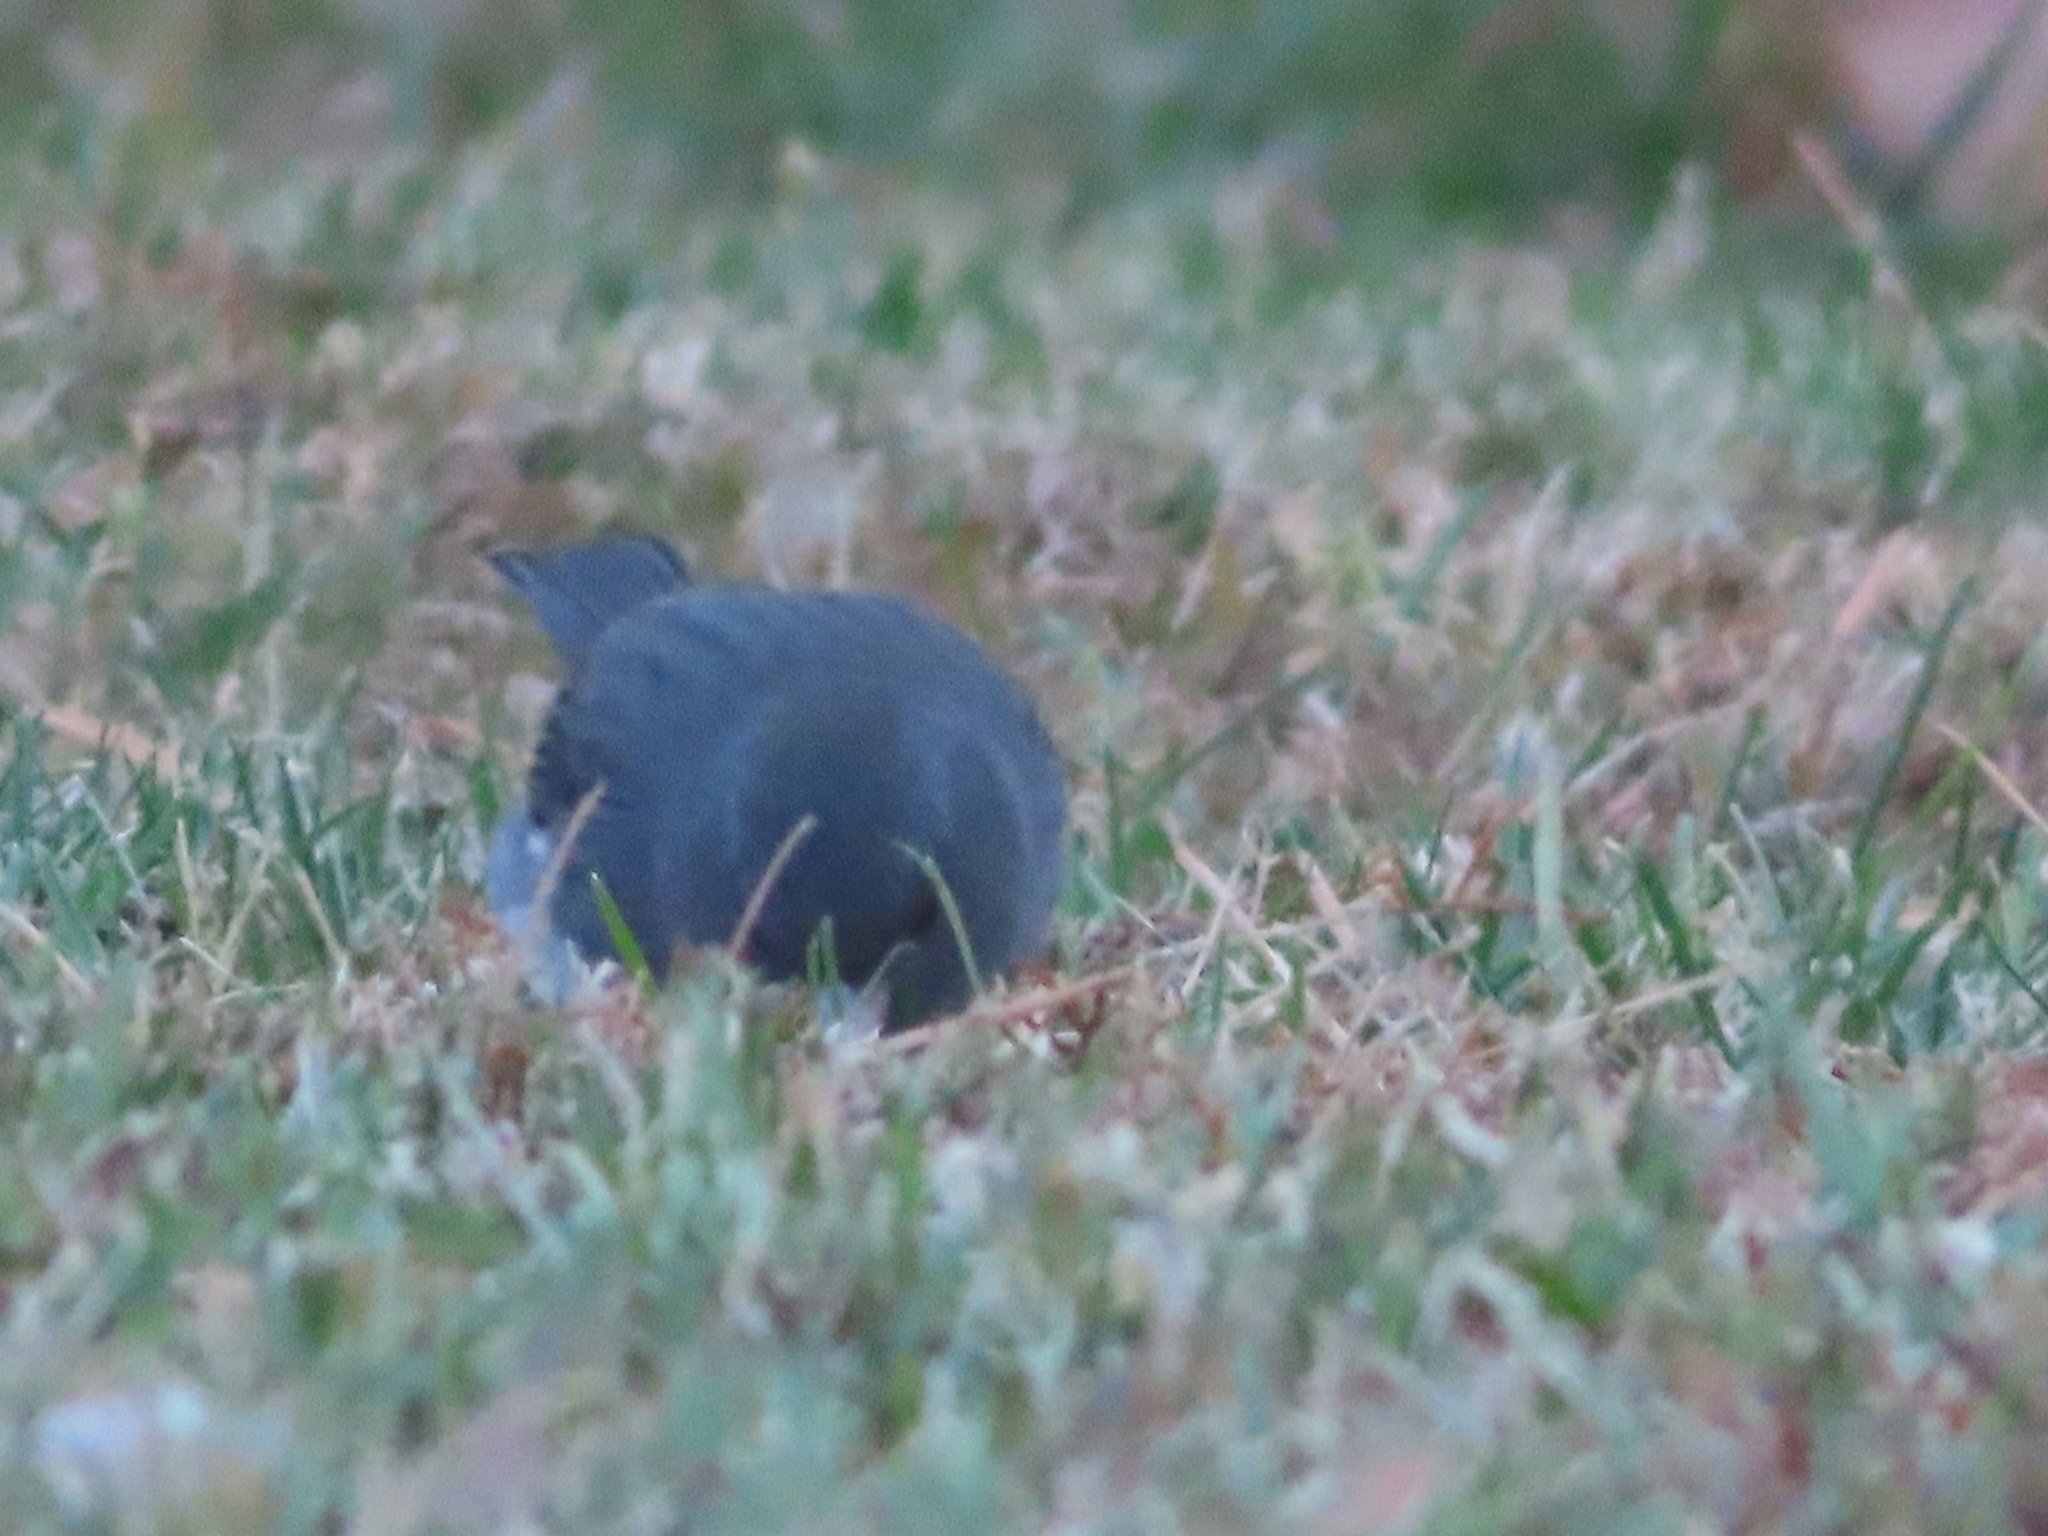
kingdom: Animalia
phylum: Chordata
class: Aves
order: Passeriformes
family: Passerellidae
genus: Junco
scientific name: Junco hyemalis
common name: Dark-eyed junco
